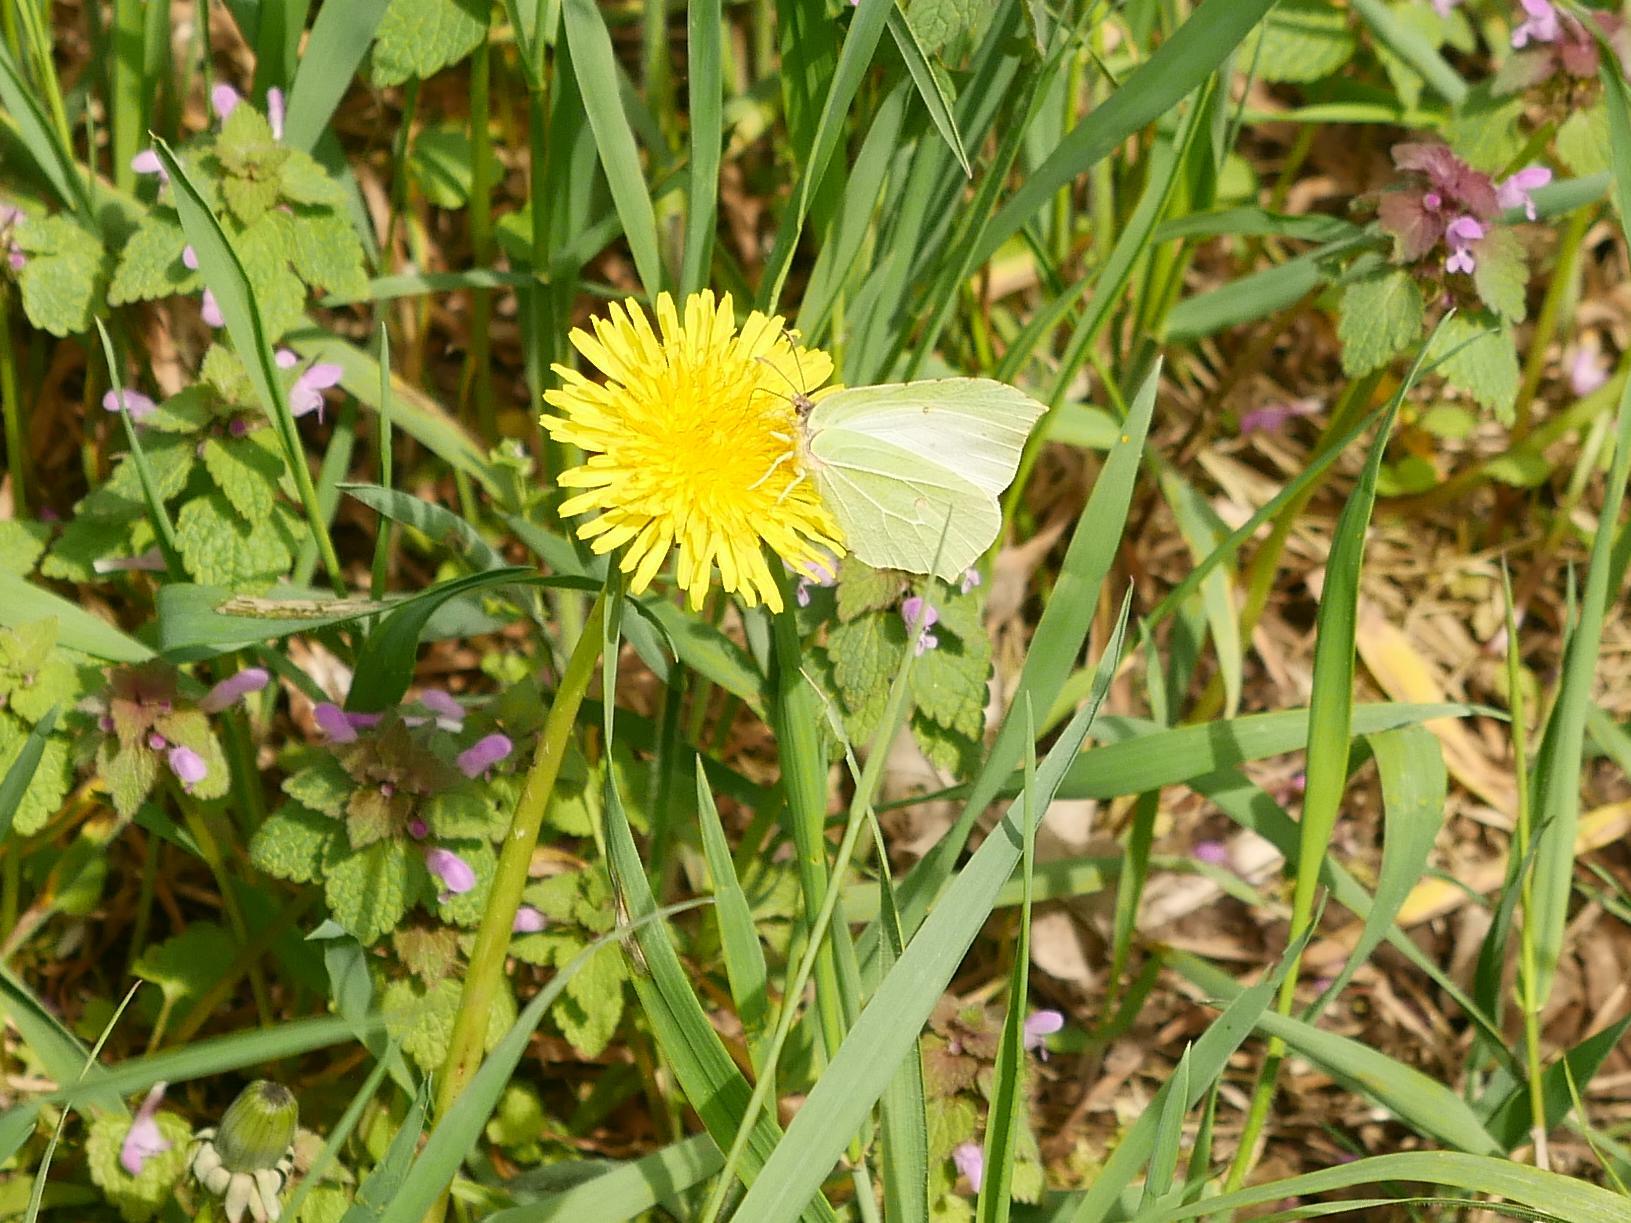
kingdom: Animalia
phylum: Arthropoda
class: Insecta
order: Lepidoptera
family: Pieridae
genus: Gonepteryx
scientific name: Gonepteryx rhamni
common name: Brimstone
